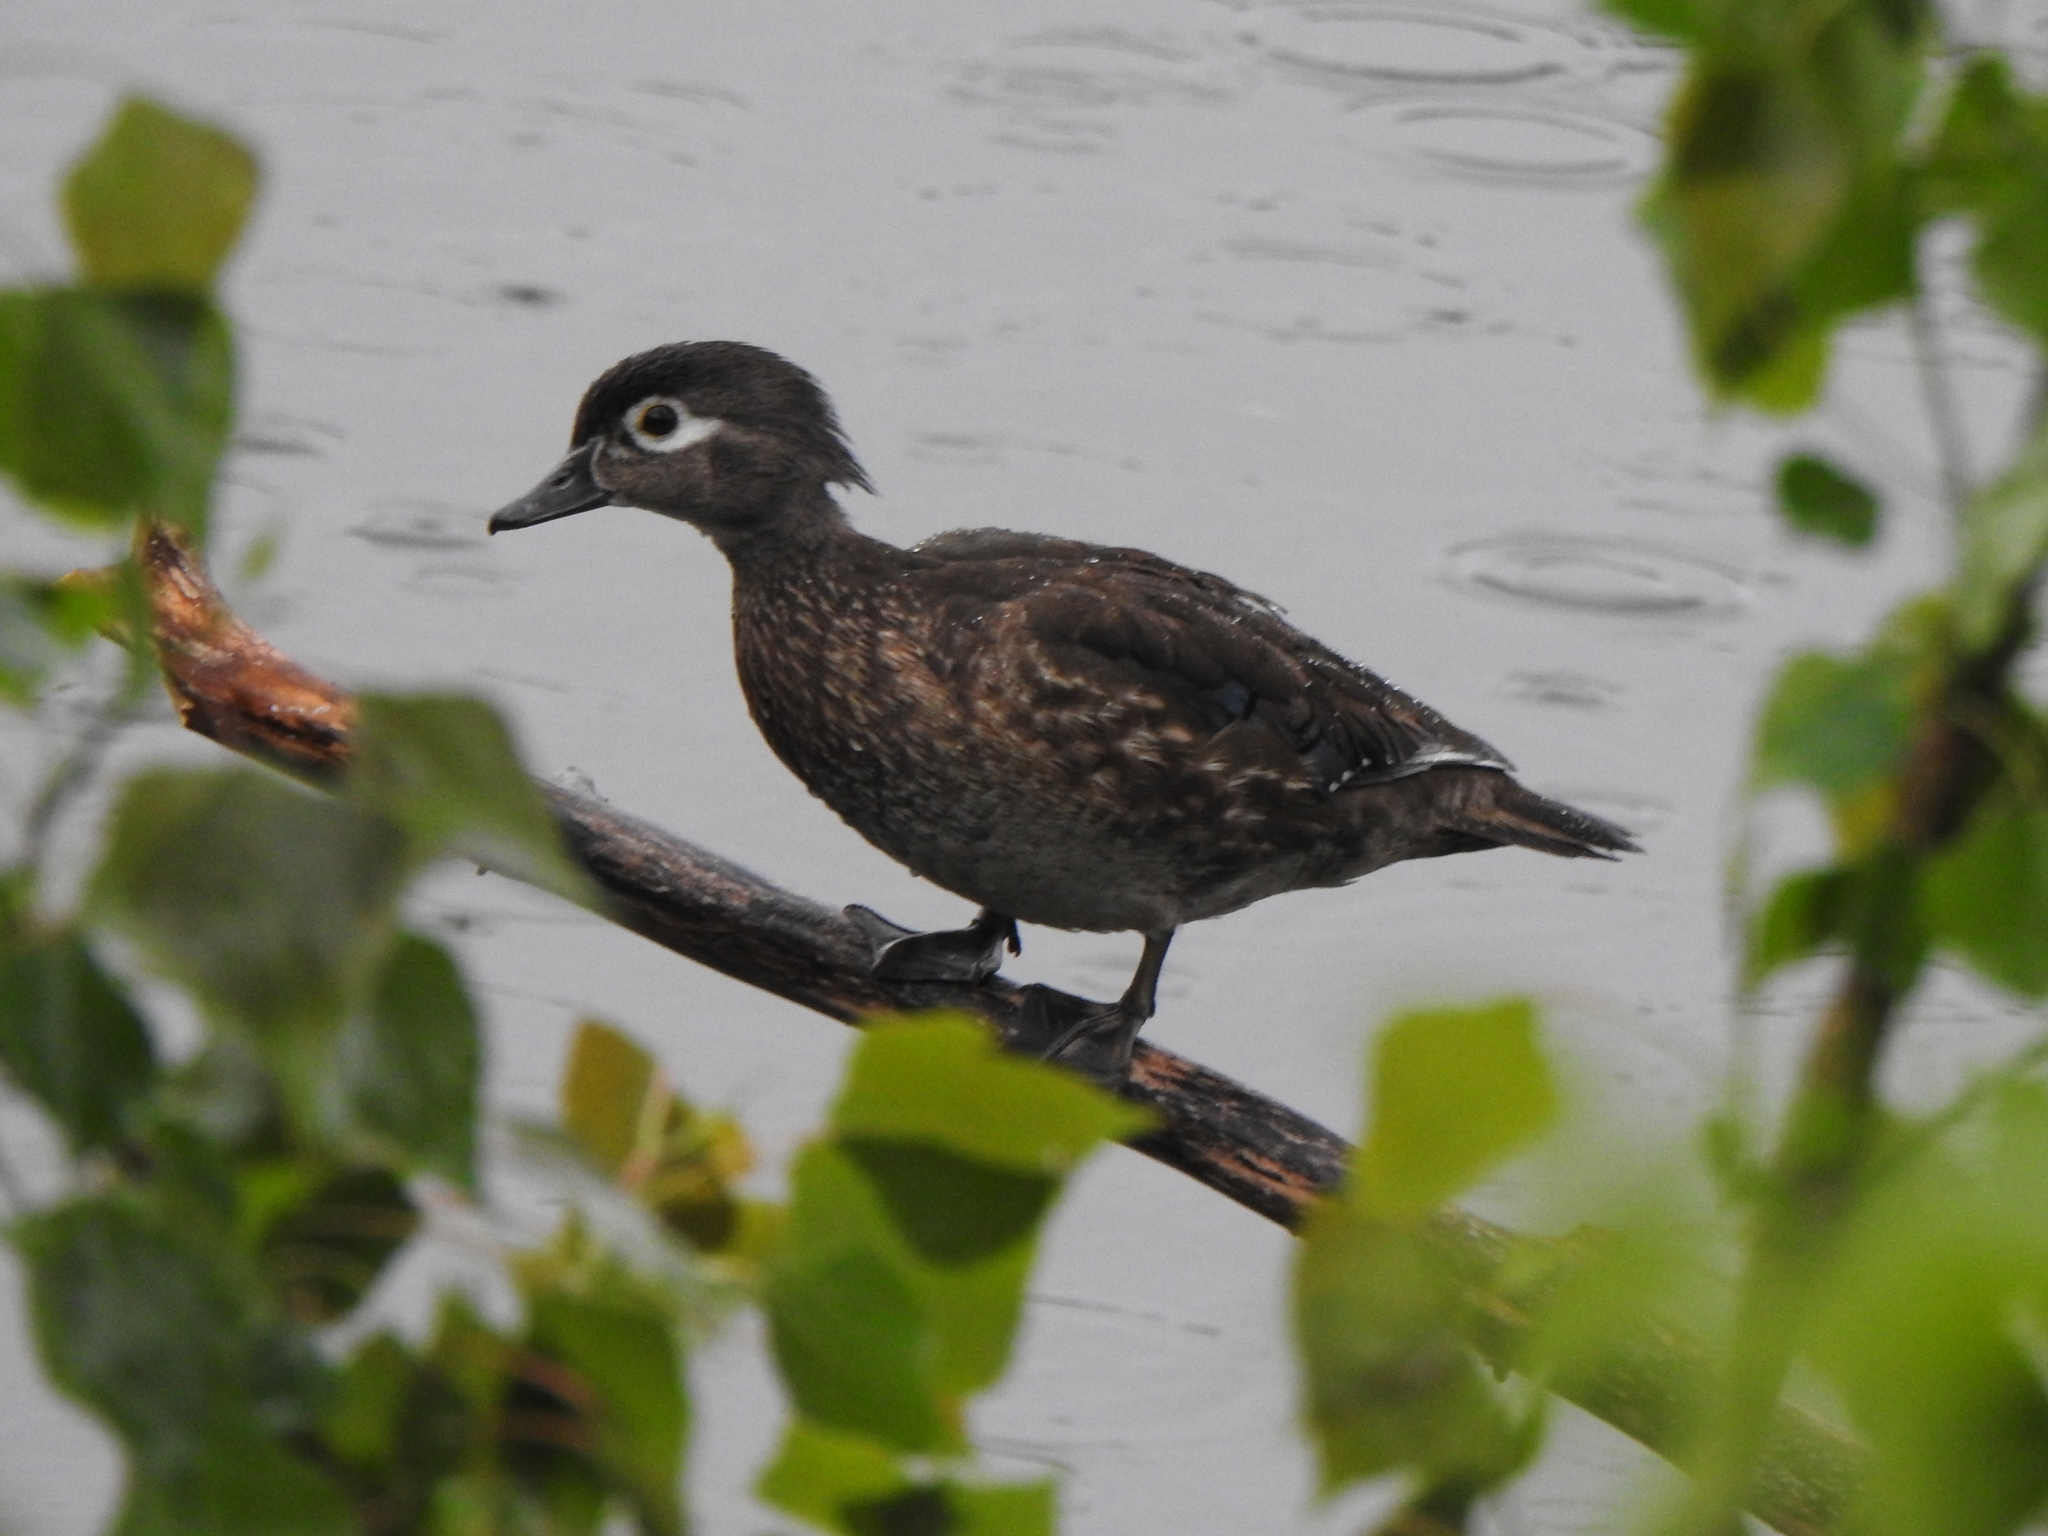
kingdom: Animalia
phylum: Chordata
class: Aves
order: Anseriformes
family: Anatidae
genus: Aix
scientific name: Aix sponsa
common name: Wood duck
